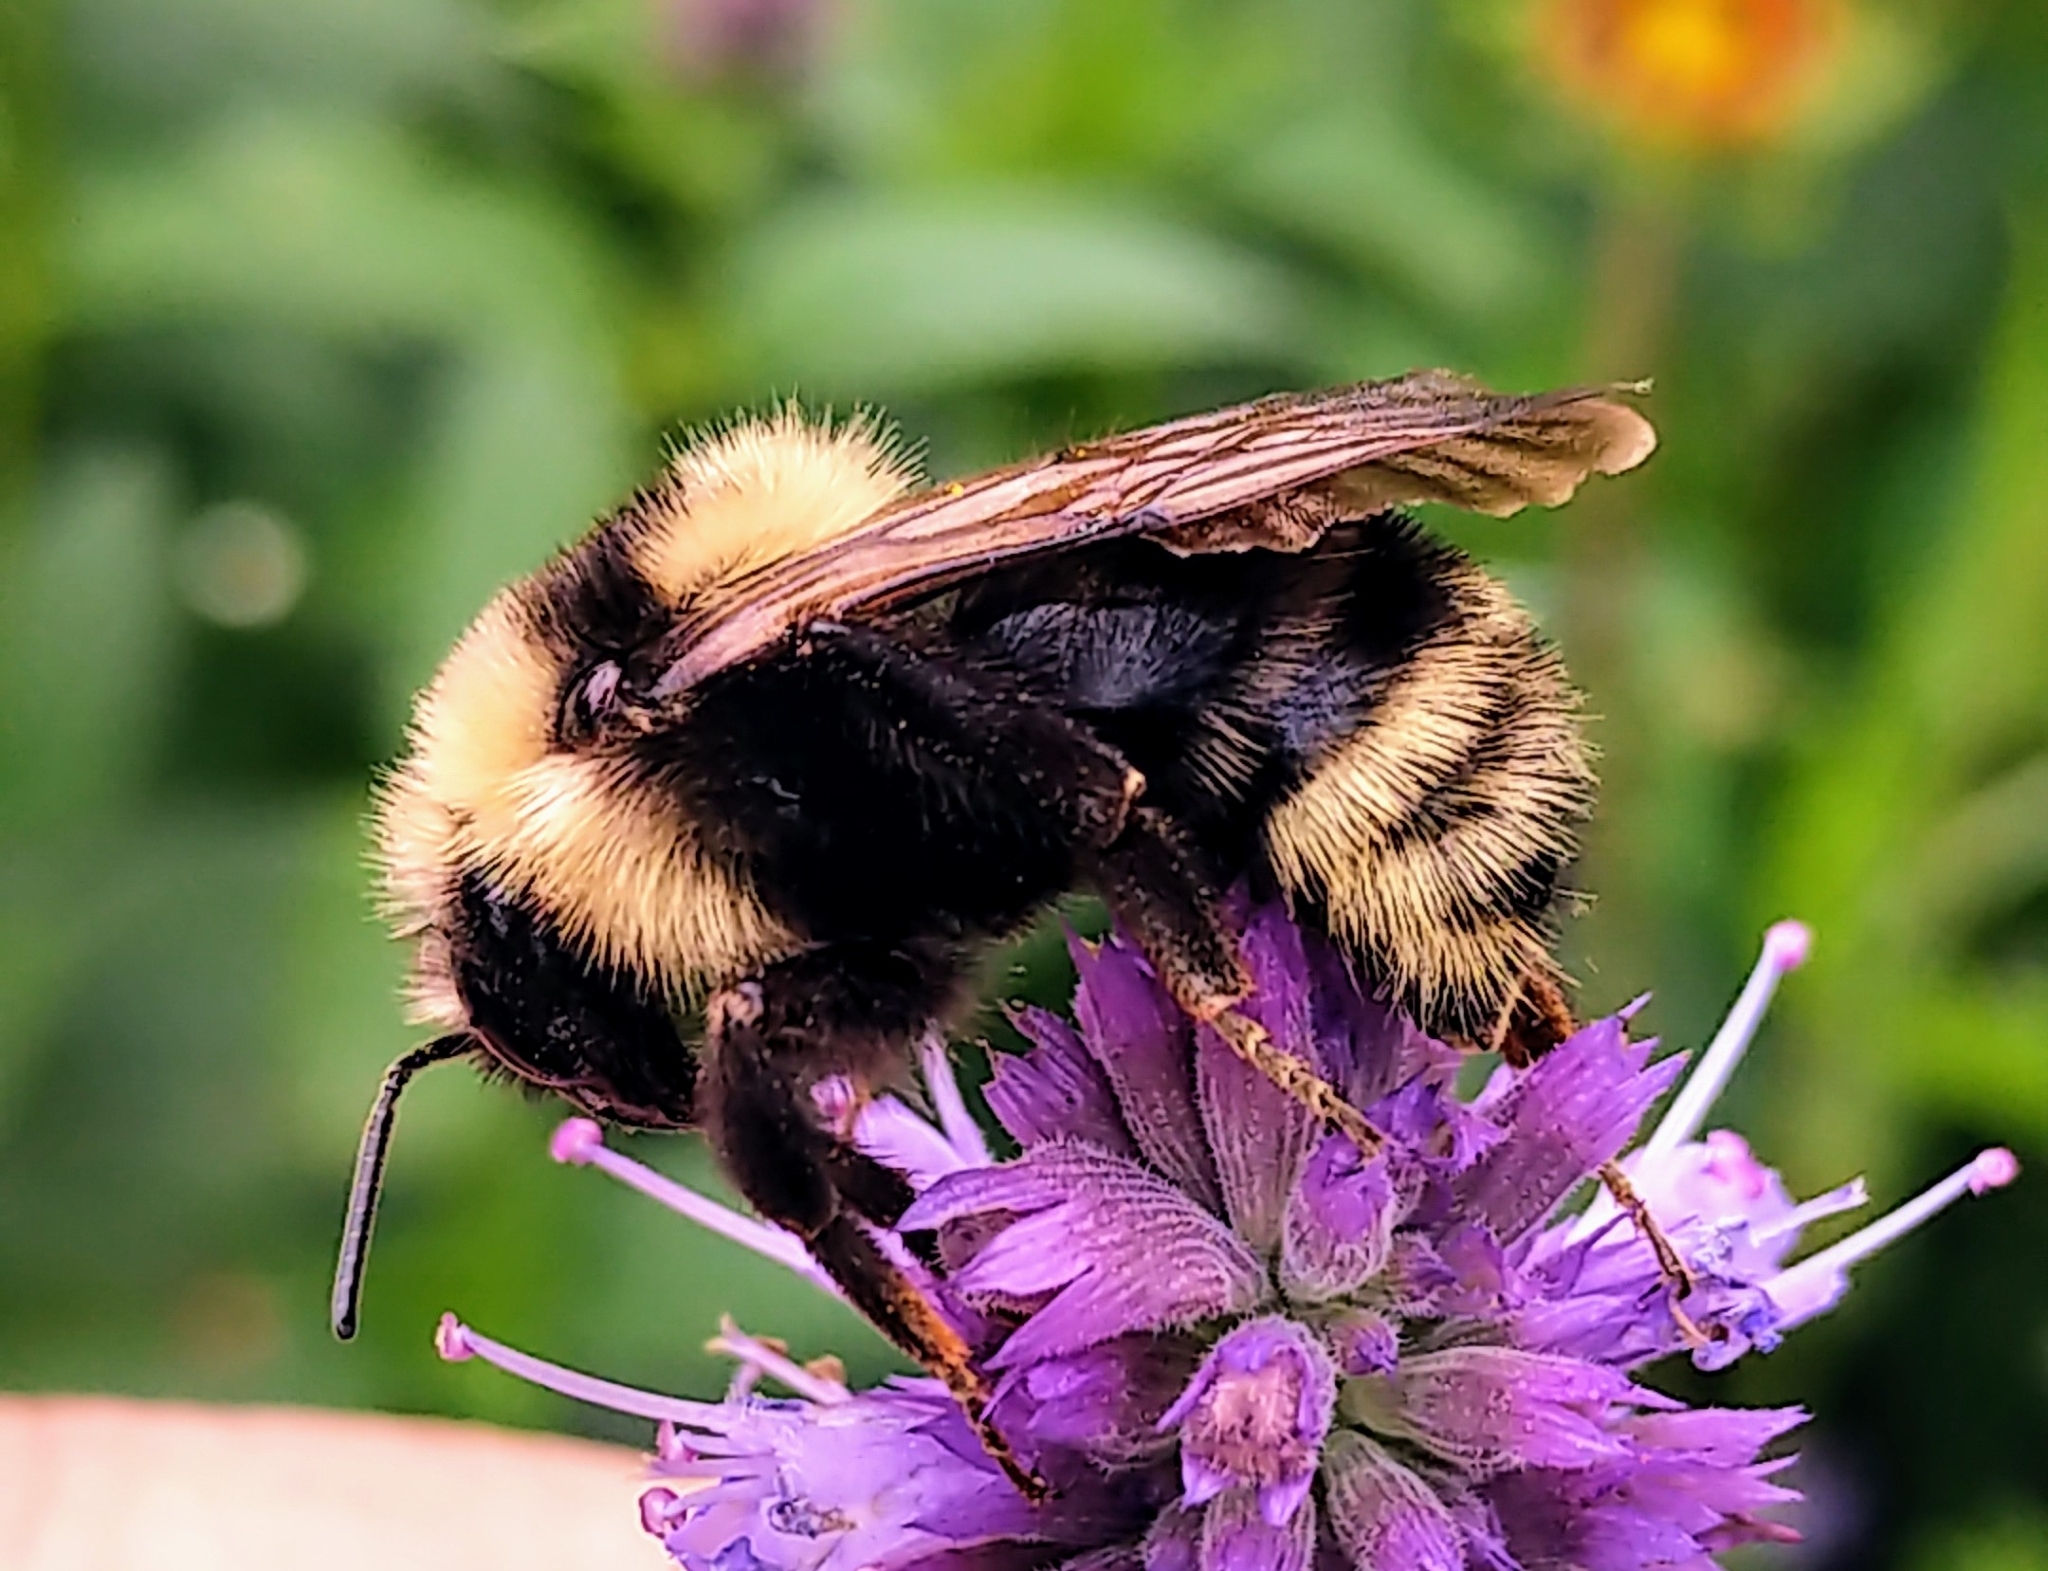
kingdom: Animalia
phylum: Arthropoda
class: Insecta
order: Hymenoptera
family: Apidae
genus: Bombus
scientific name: Bombus insularis
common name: Indiscriminate cuckoo bumble bee
